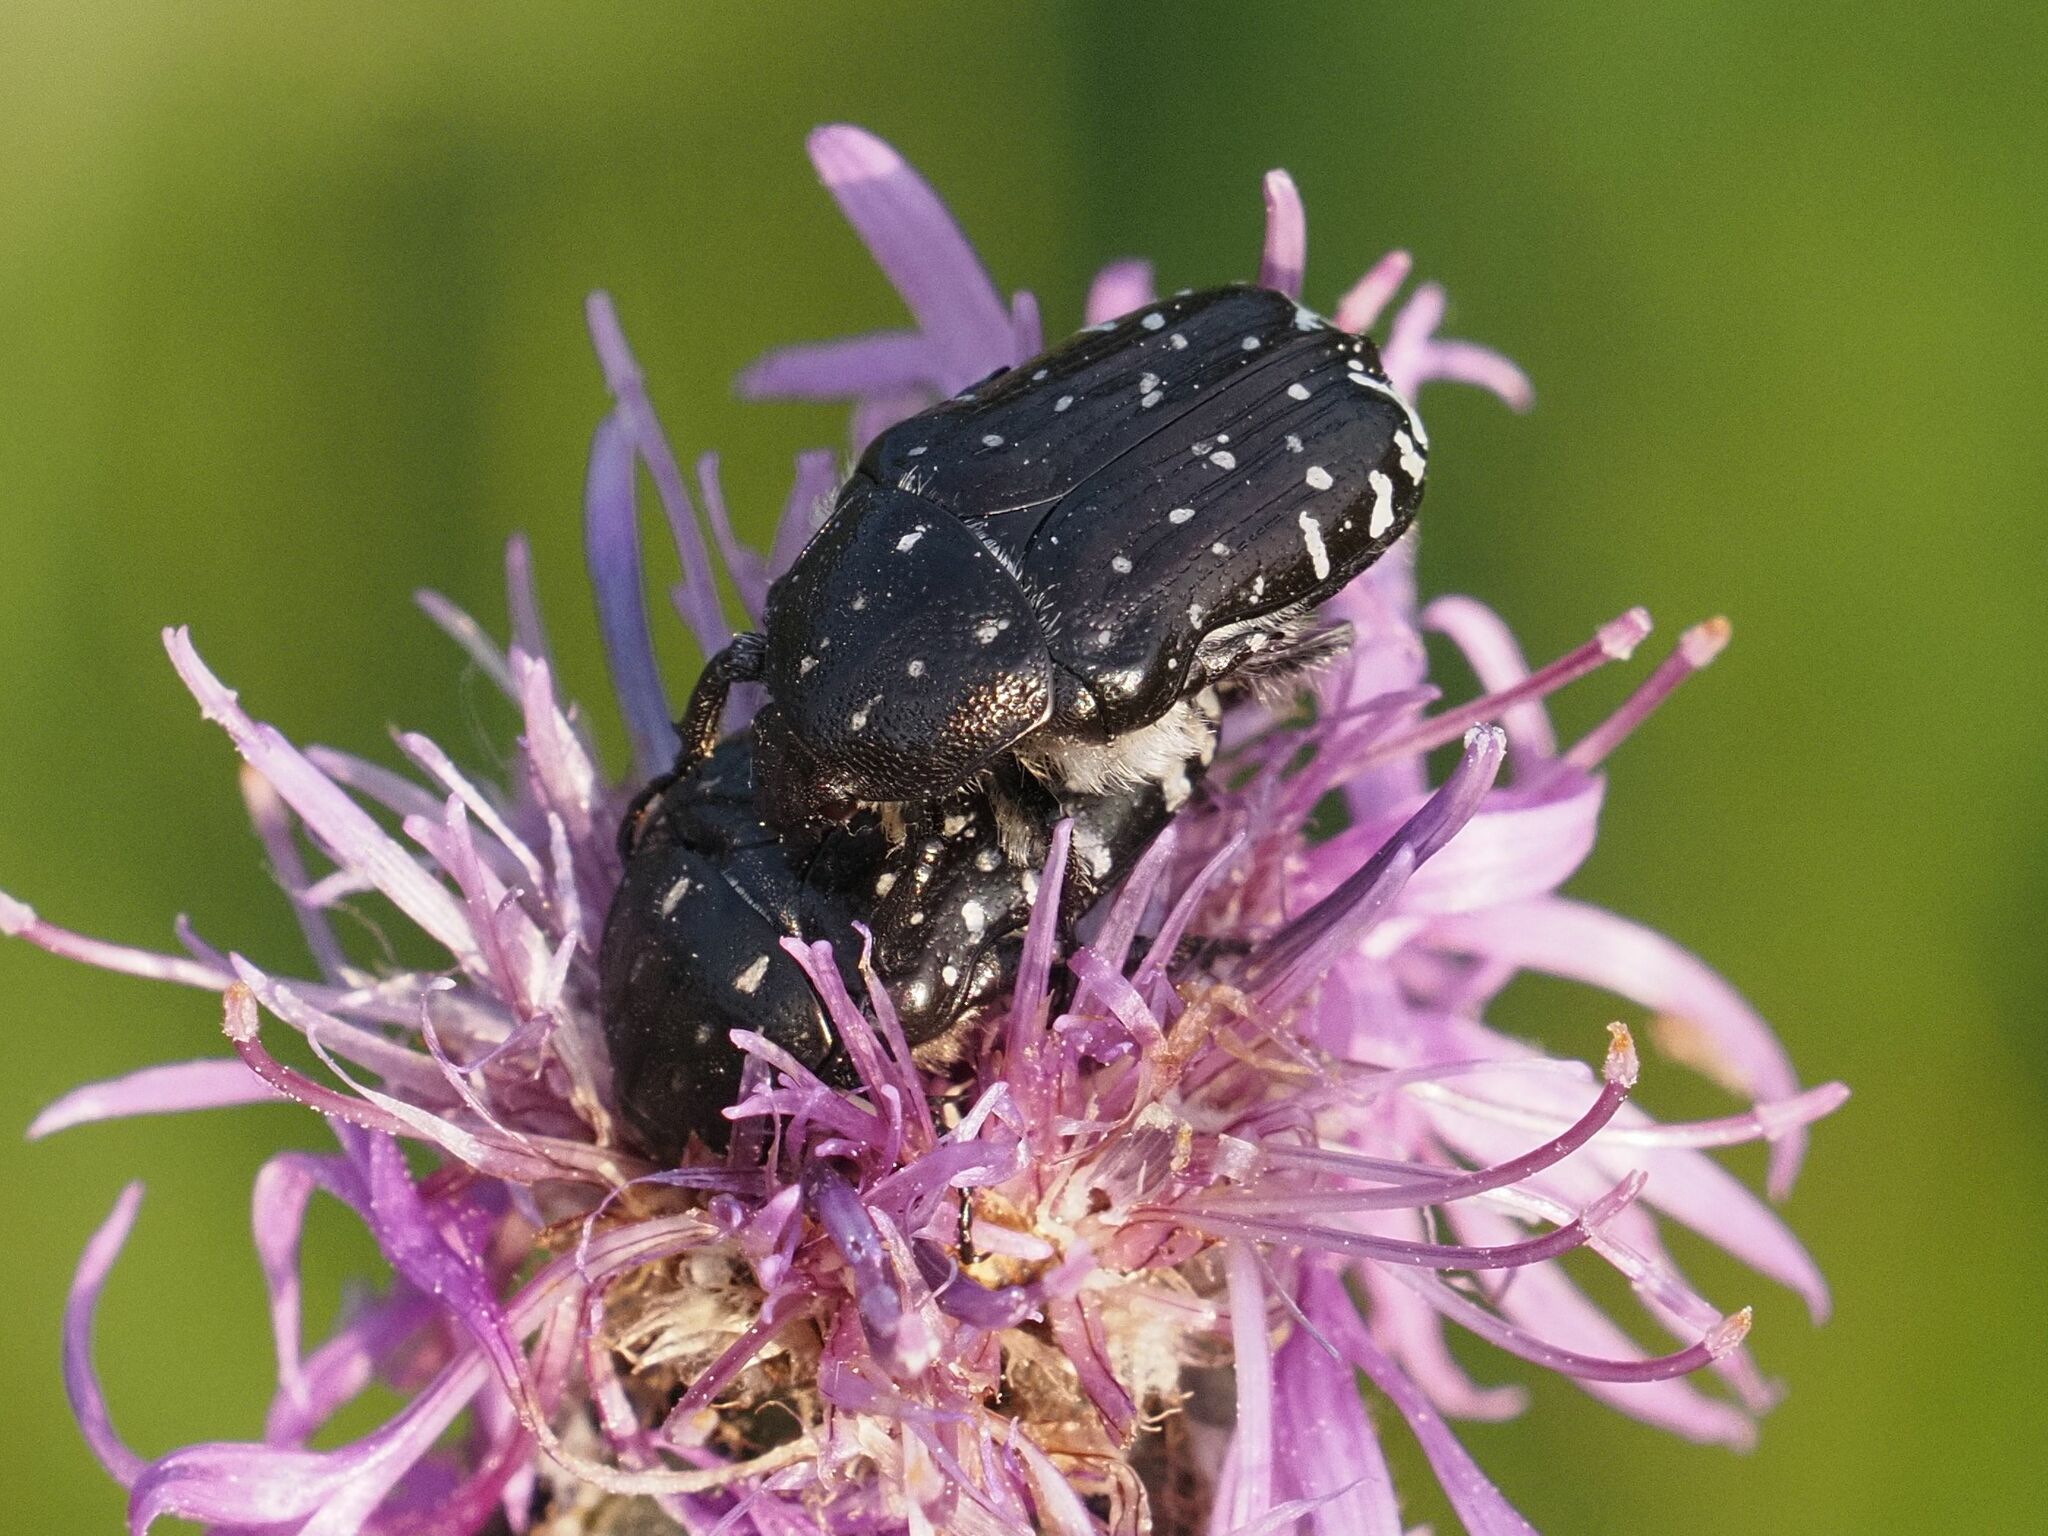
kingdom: Animalia
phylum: Arthropoda
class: Insecta
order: Coleoptera
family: Scarabaeidae
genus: Oxythyrea
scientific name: Oxythyrea funesta
